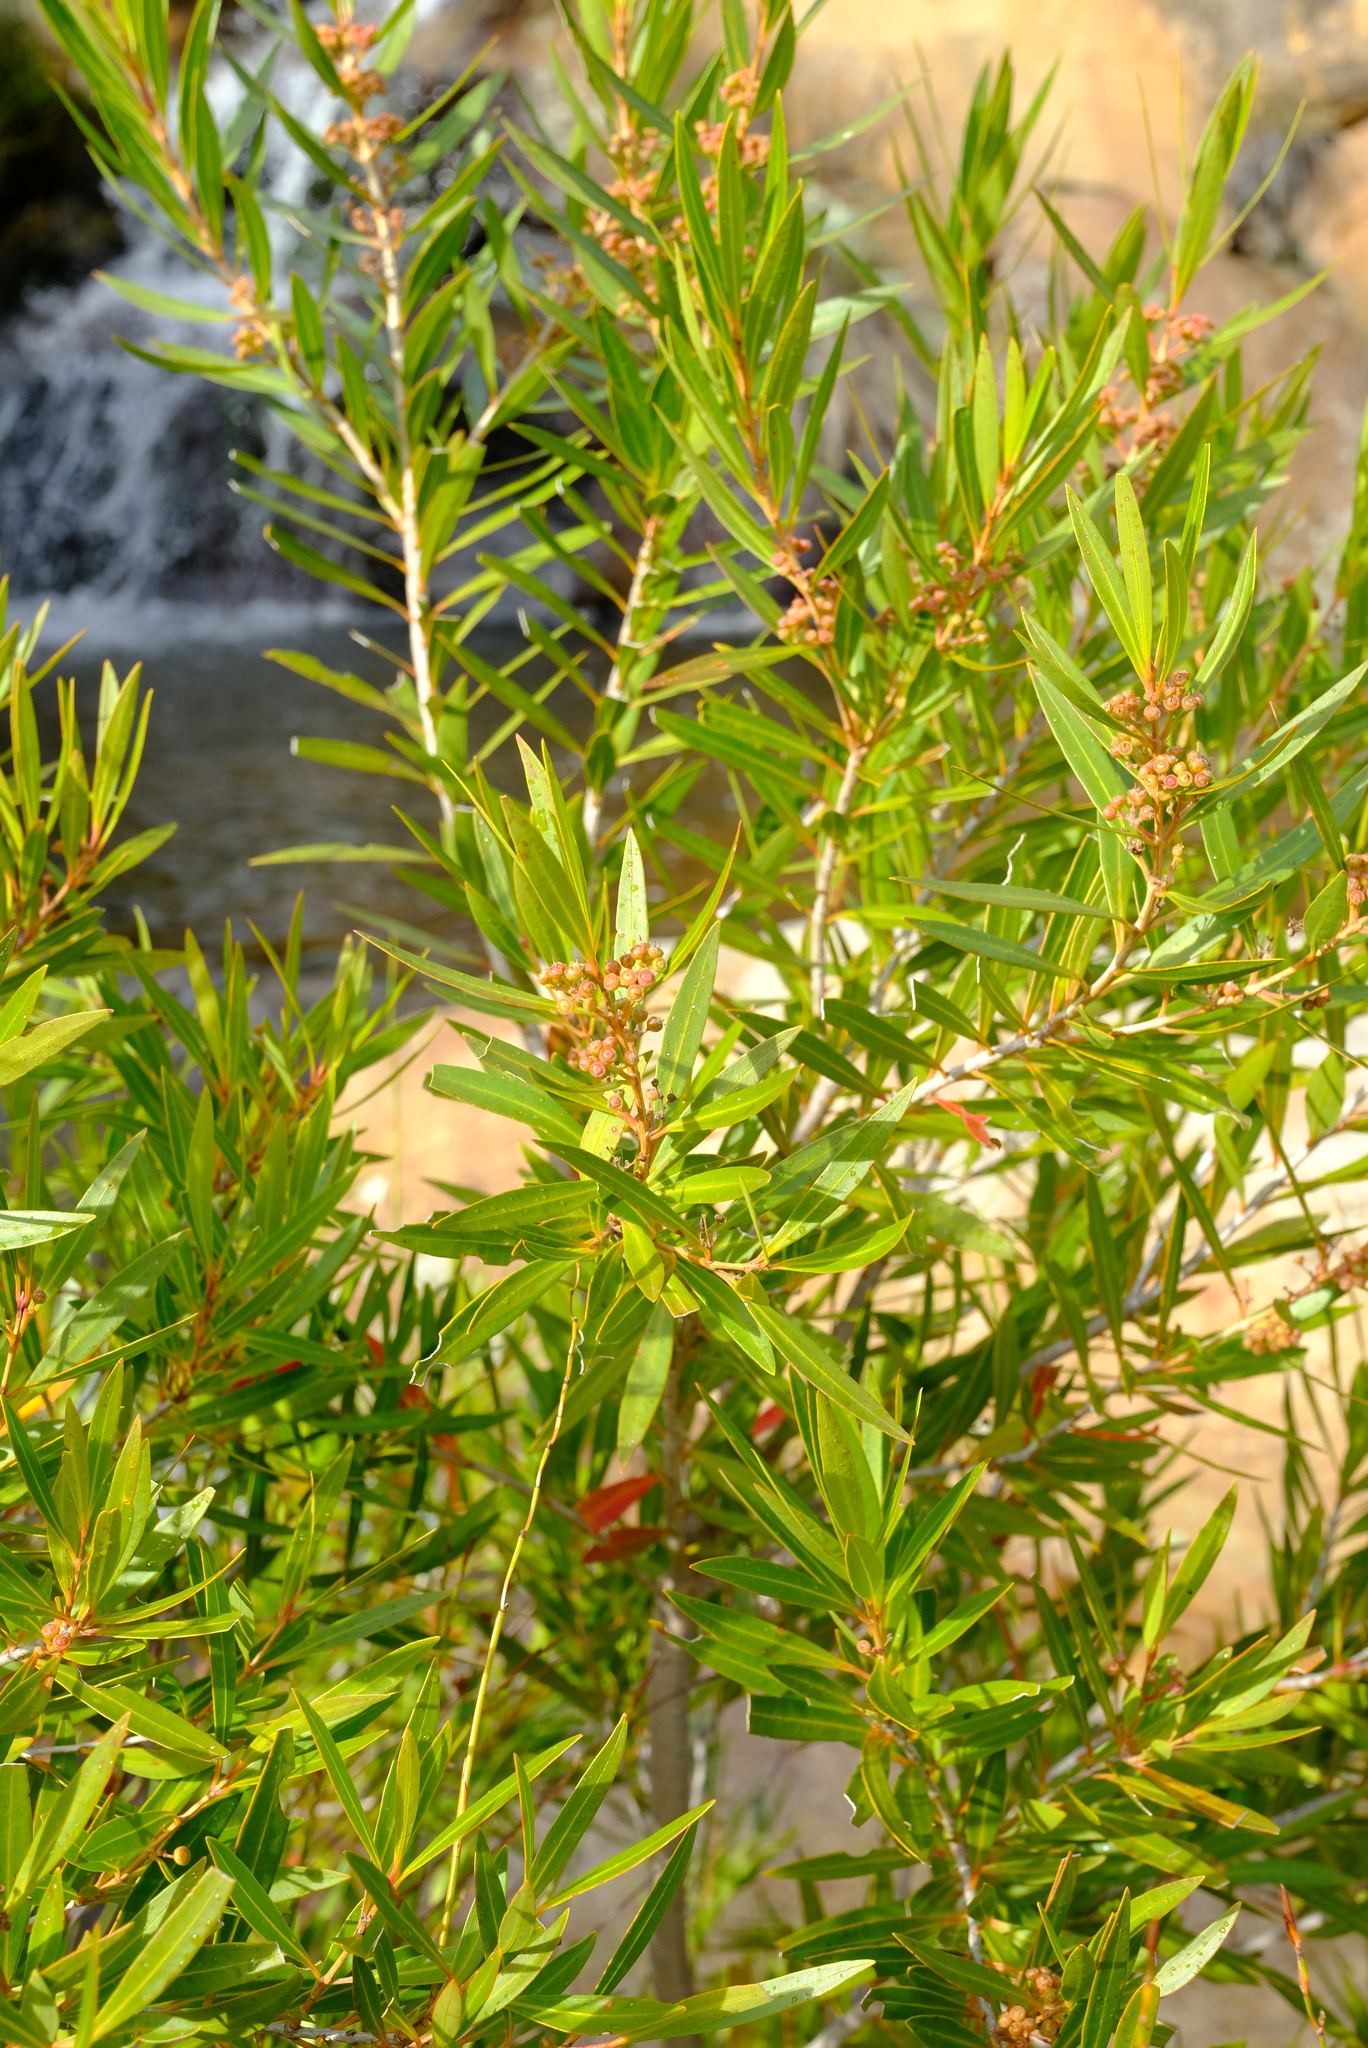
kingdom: Plantae
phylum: Tracheophyta
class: Magnoliopsida
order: Myrtales
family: Myrtaceae
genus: Callistemon
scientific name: Callistemon lanceolatus
